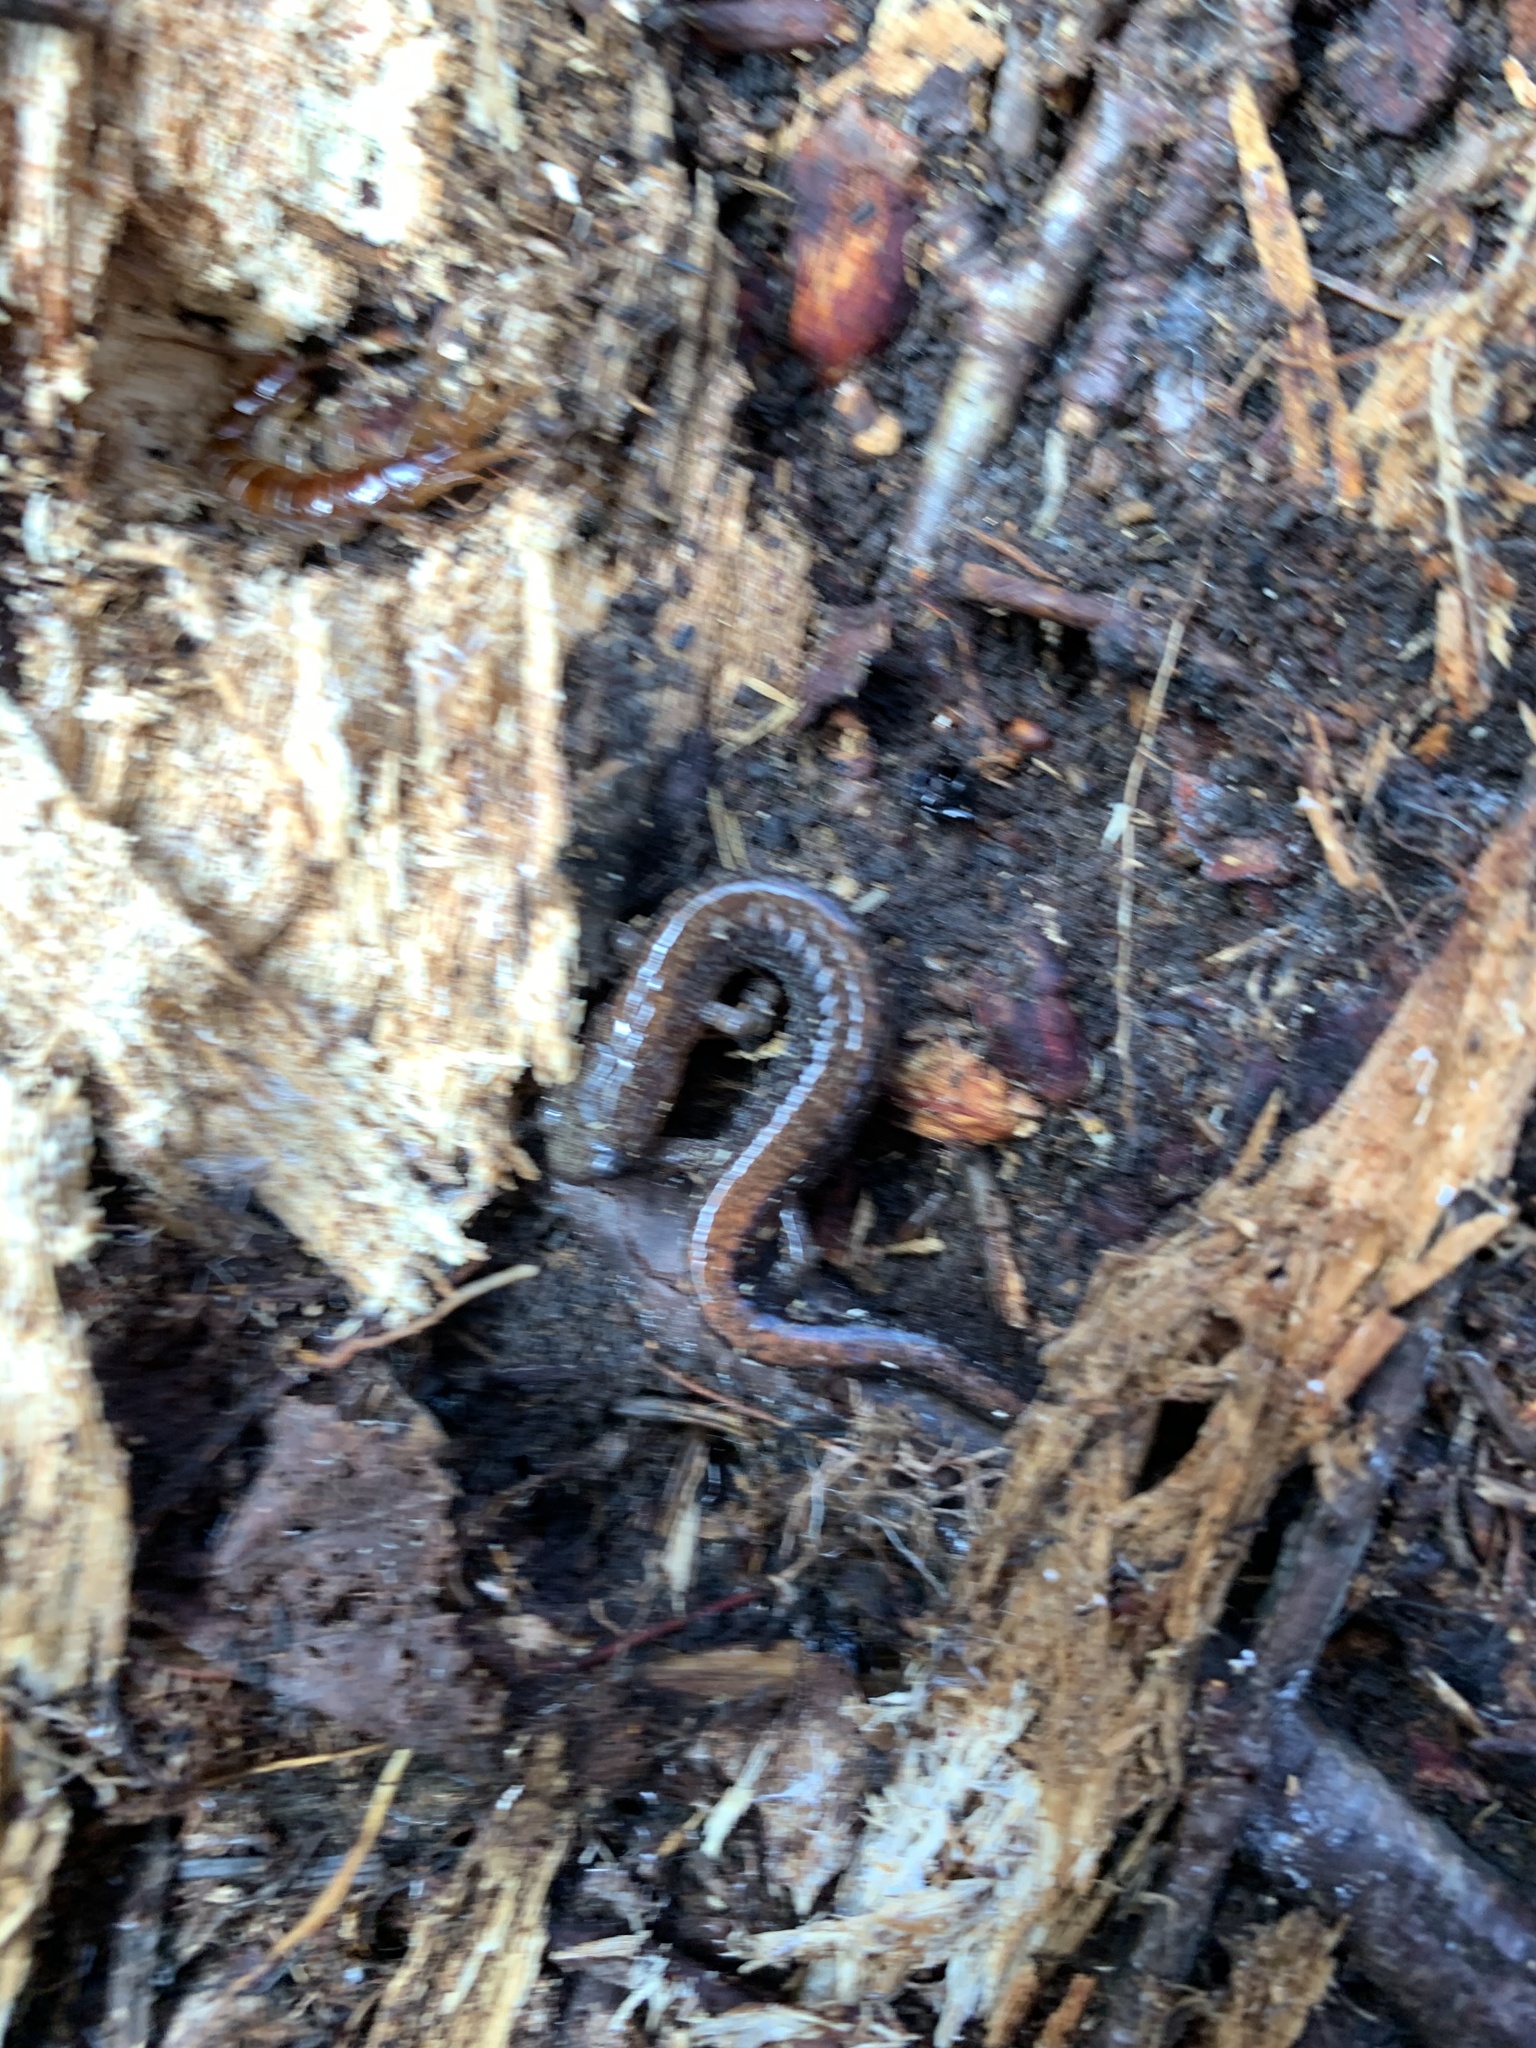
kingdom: Animalia
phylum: Chordata
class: Amphibia
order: Caudata
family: Plethodontidae
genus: Plethodon
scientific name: Plethodon cinereus
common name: Redback salamander
